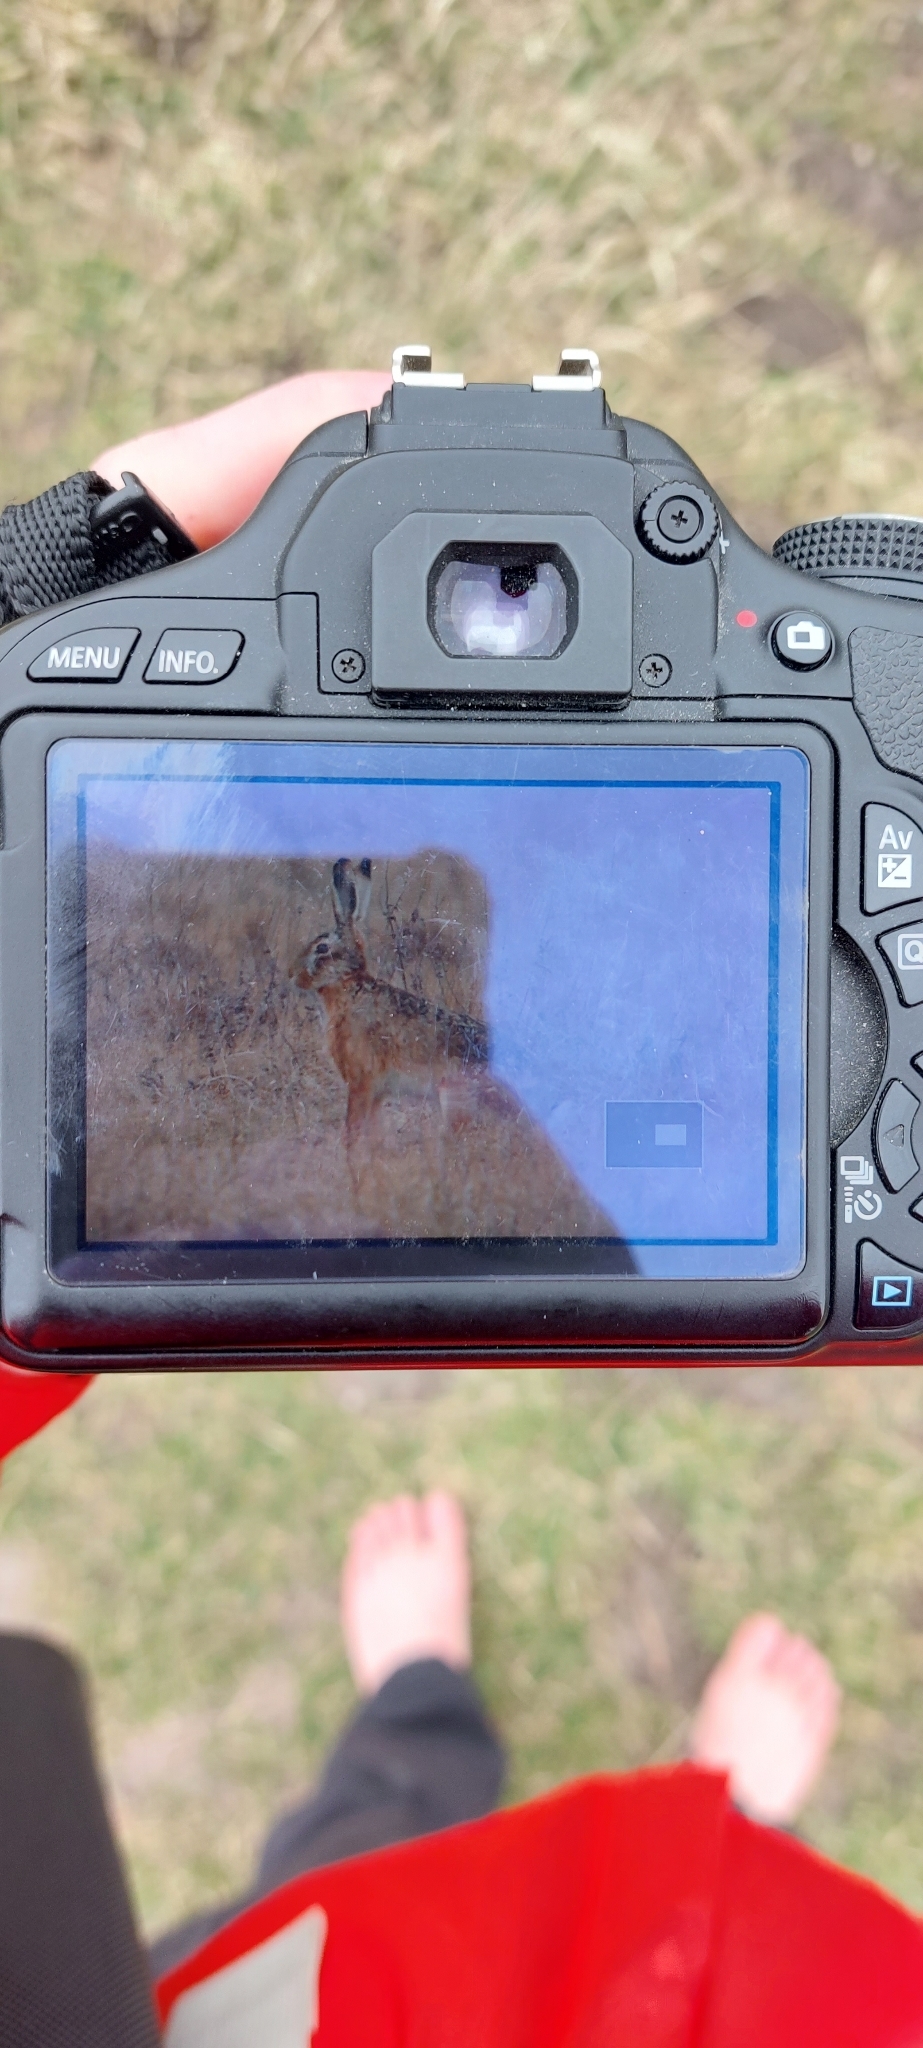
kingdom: Animalia
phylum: Chordata
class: Mammalia
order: Lagomorpha
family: Leporidae
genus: Lepus
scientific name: Lepus europaeus
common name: European hare
